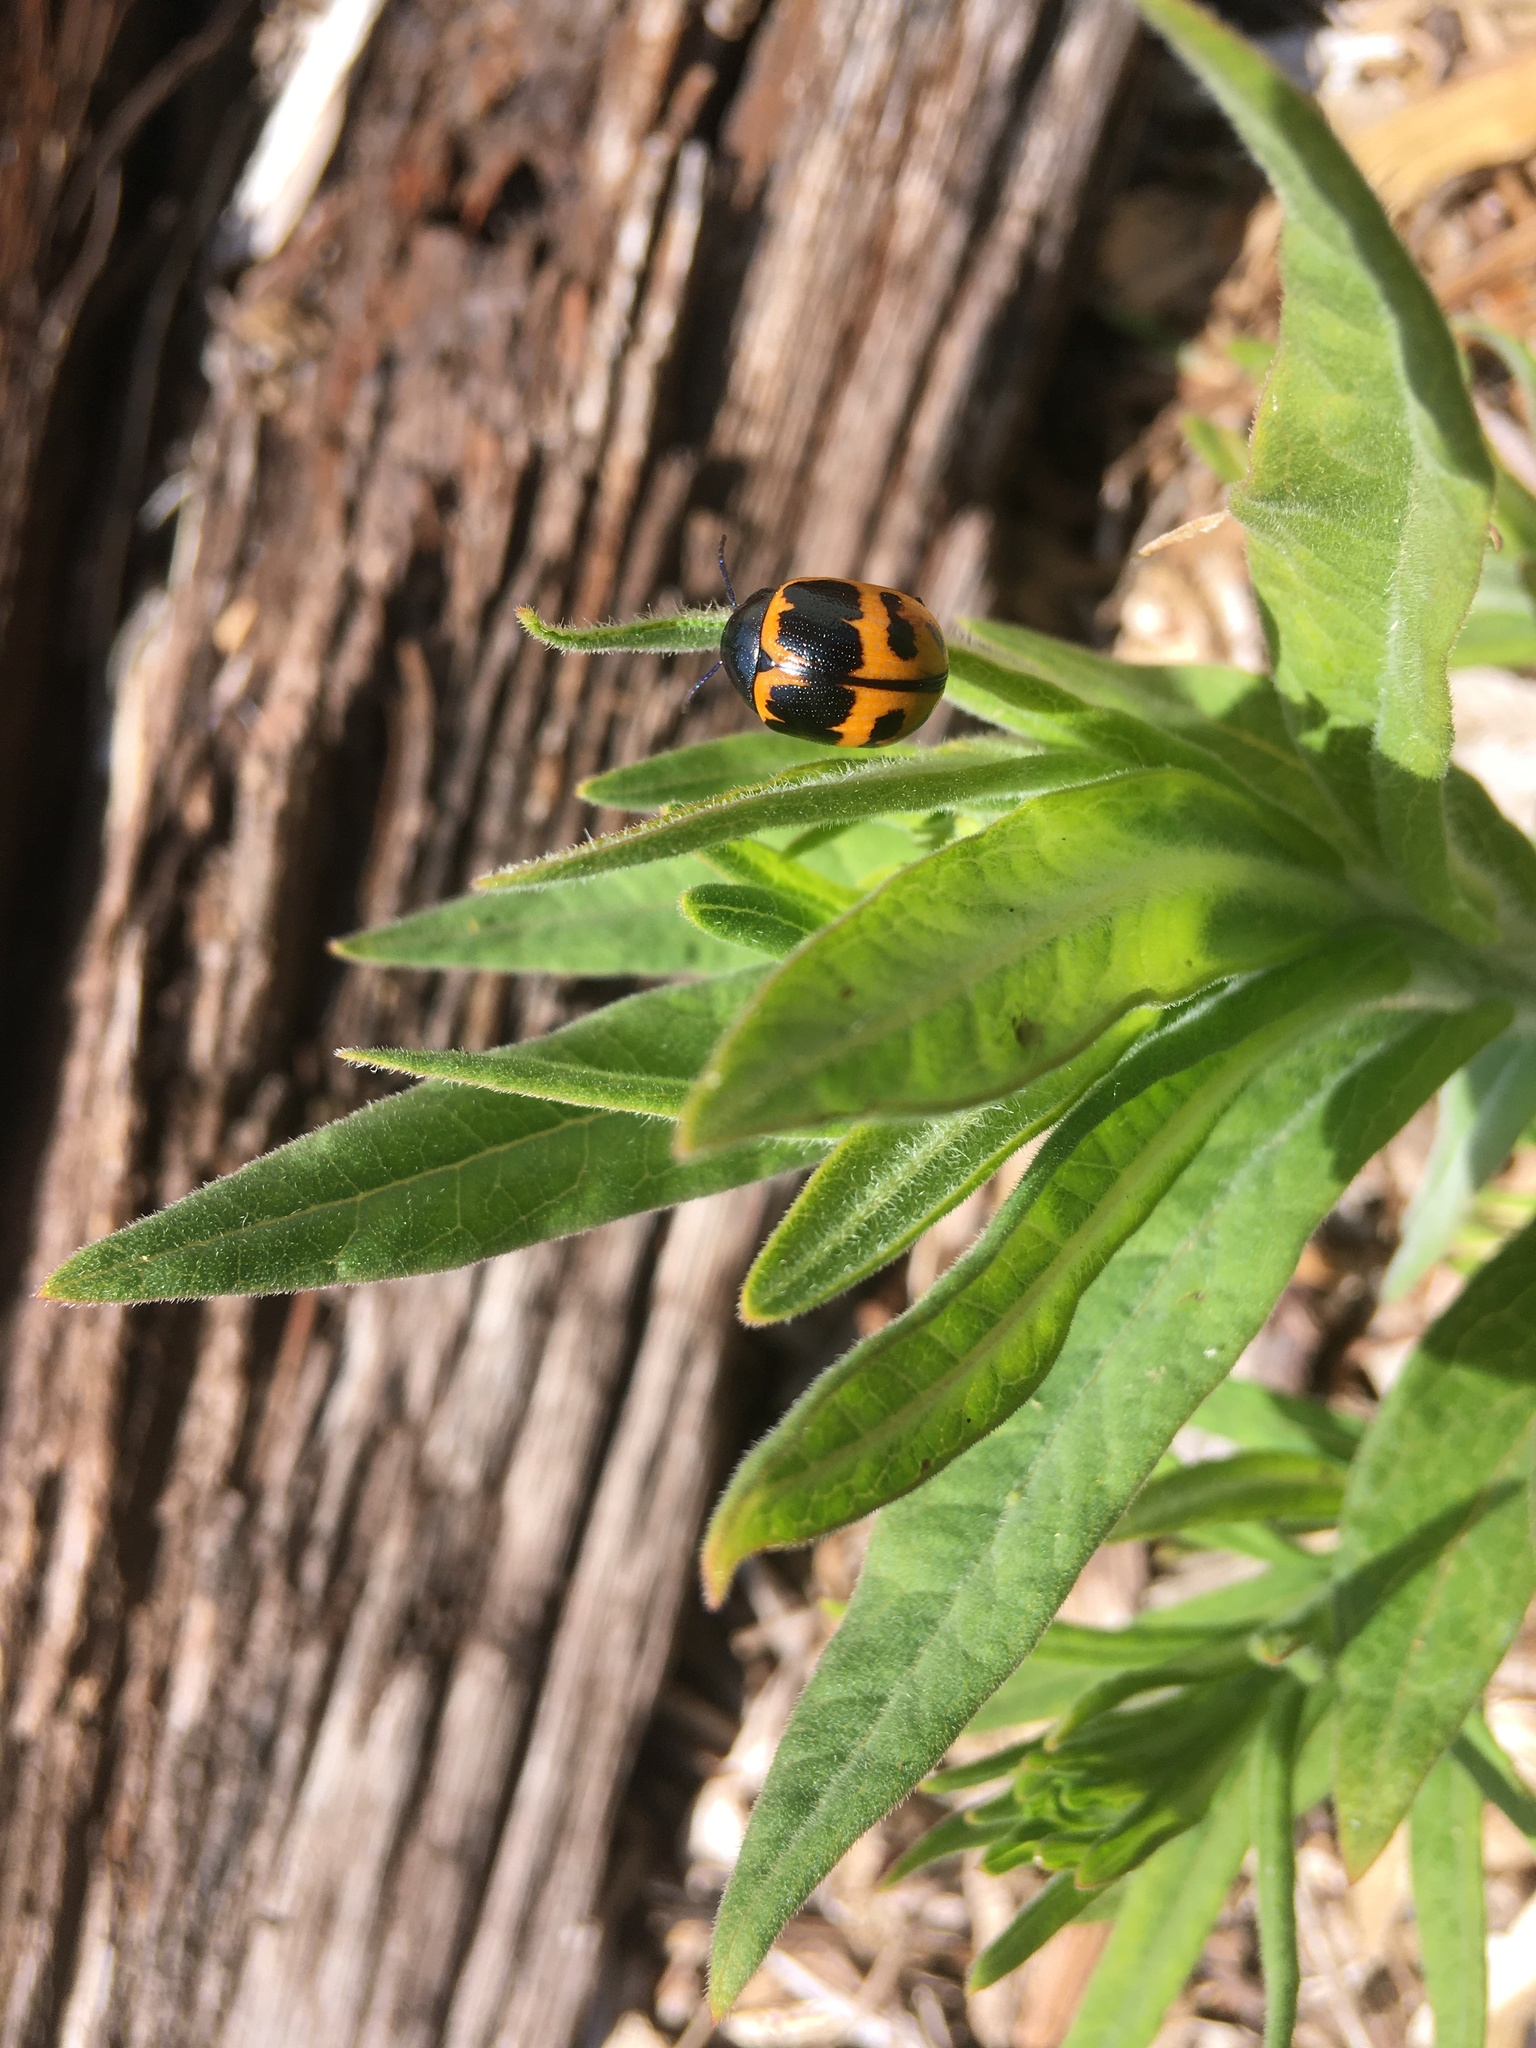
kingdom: Animalia
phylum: Arthropoda
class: Insecta
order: Coleoptera
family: Chrysomelidae
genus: Labidomera
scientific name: Labidomera clivicollis
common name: Swamp milkweed leaf beetle
